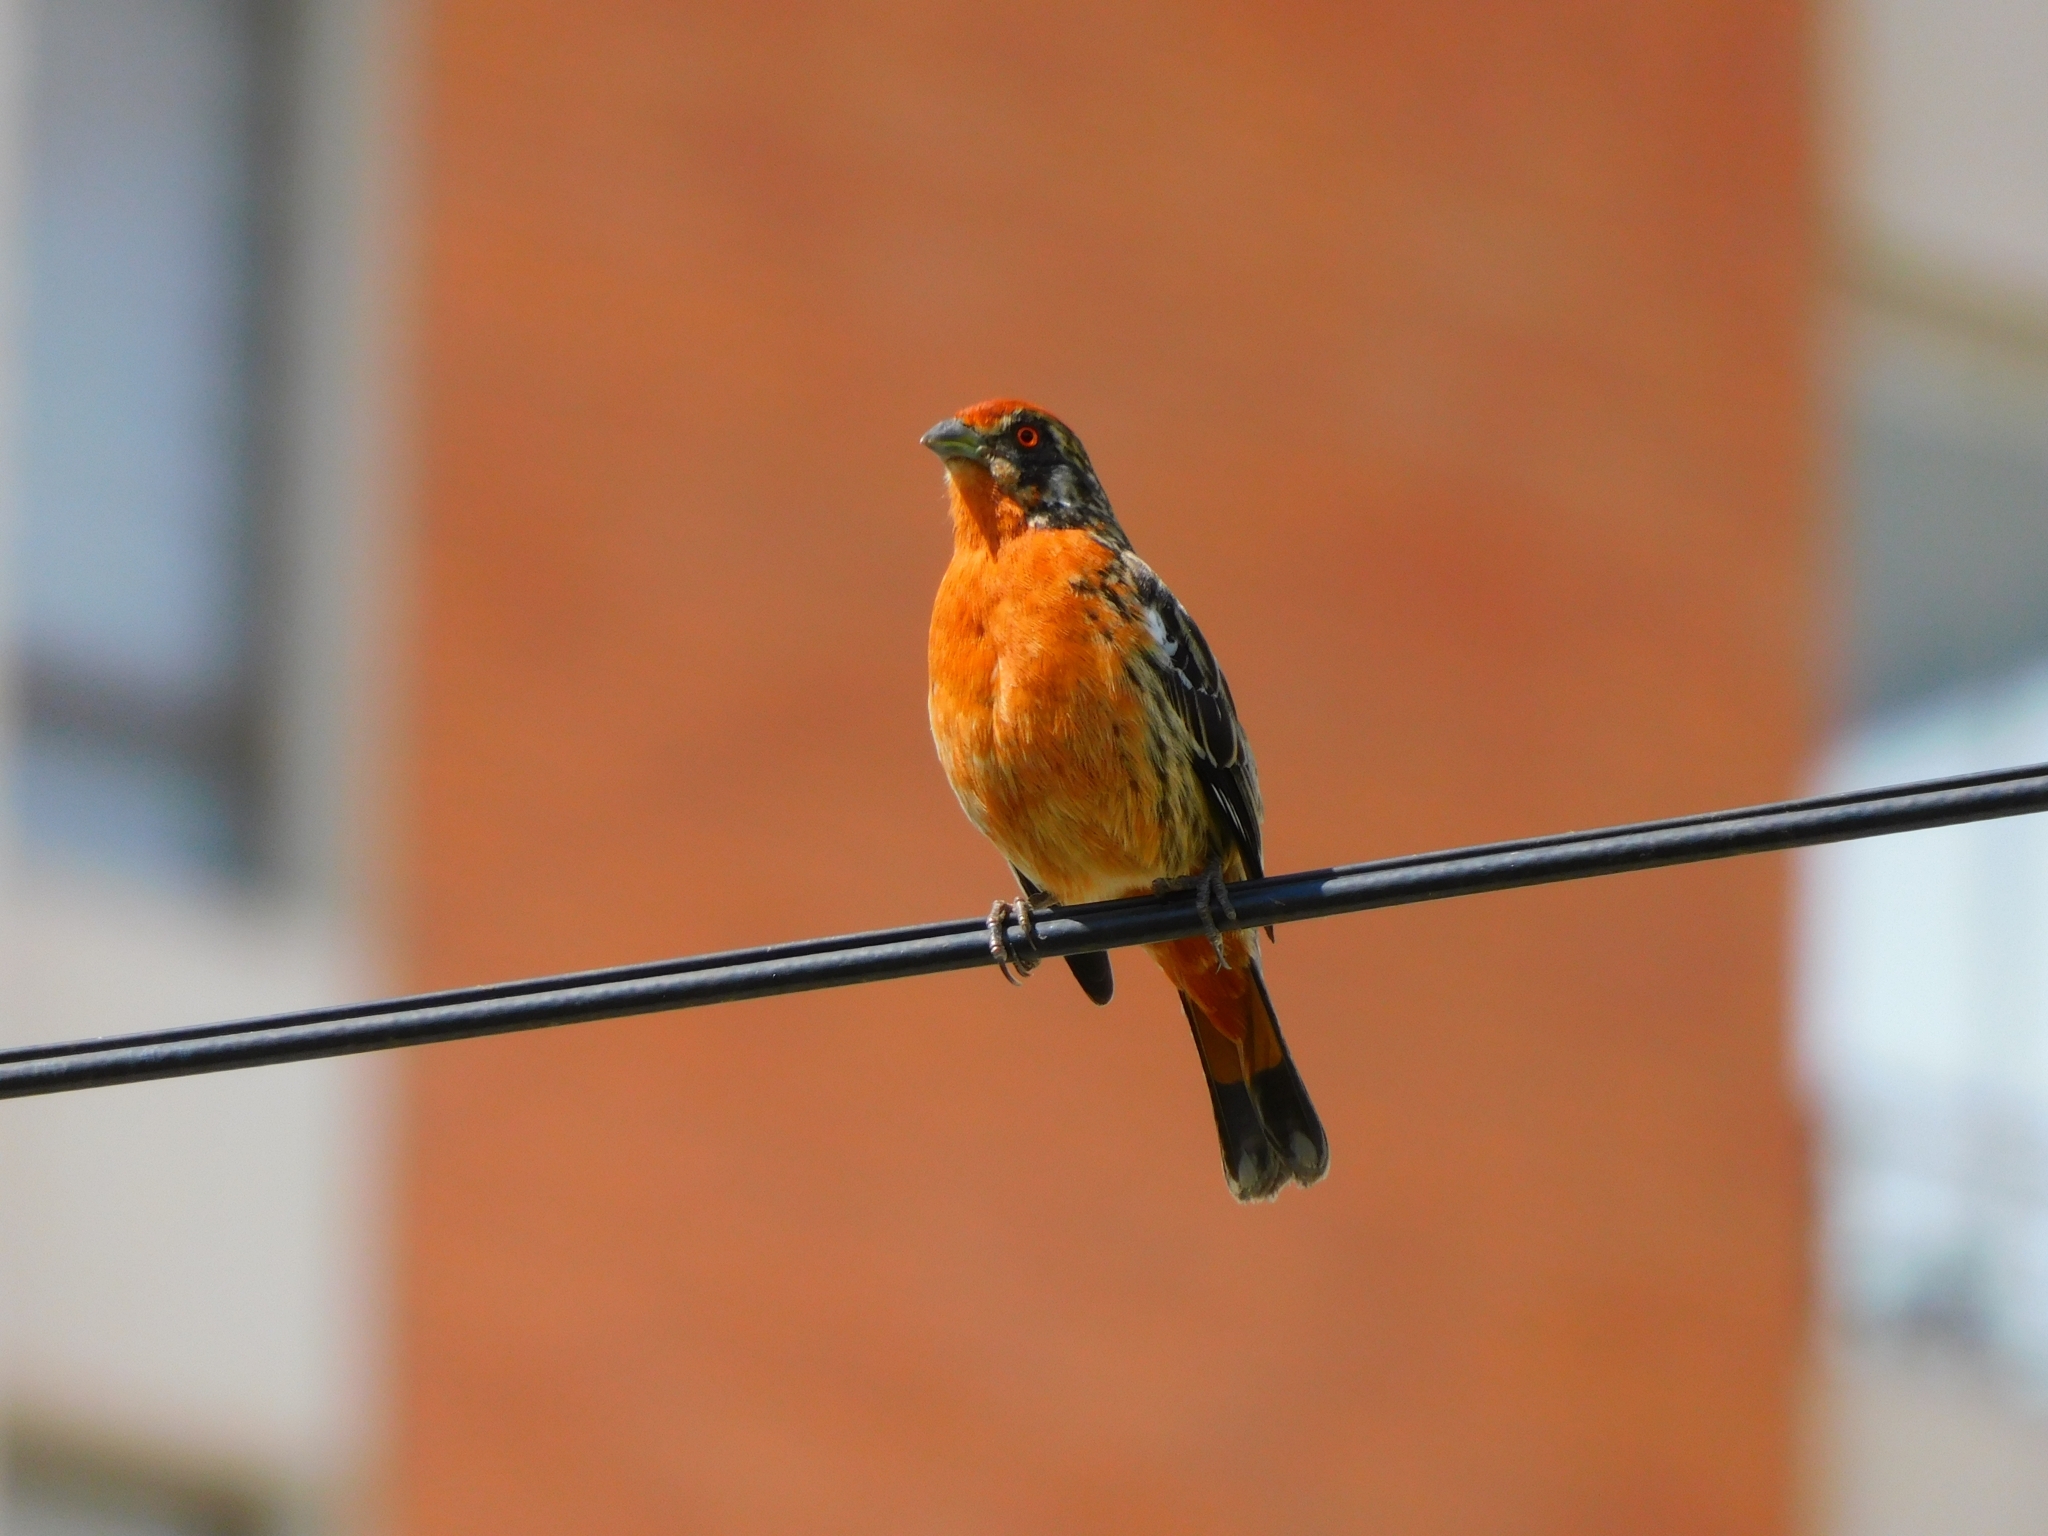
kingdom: Animalia
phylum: Chordata
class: Aves
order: Passeriformes
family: Cotingidae
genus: Phytotoma
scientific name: Phytotoma rara
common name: Rufous-tailed plantcutter
